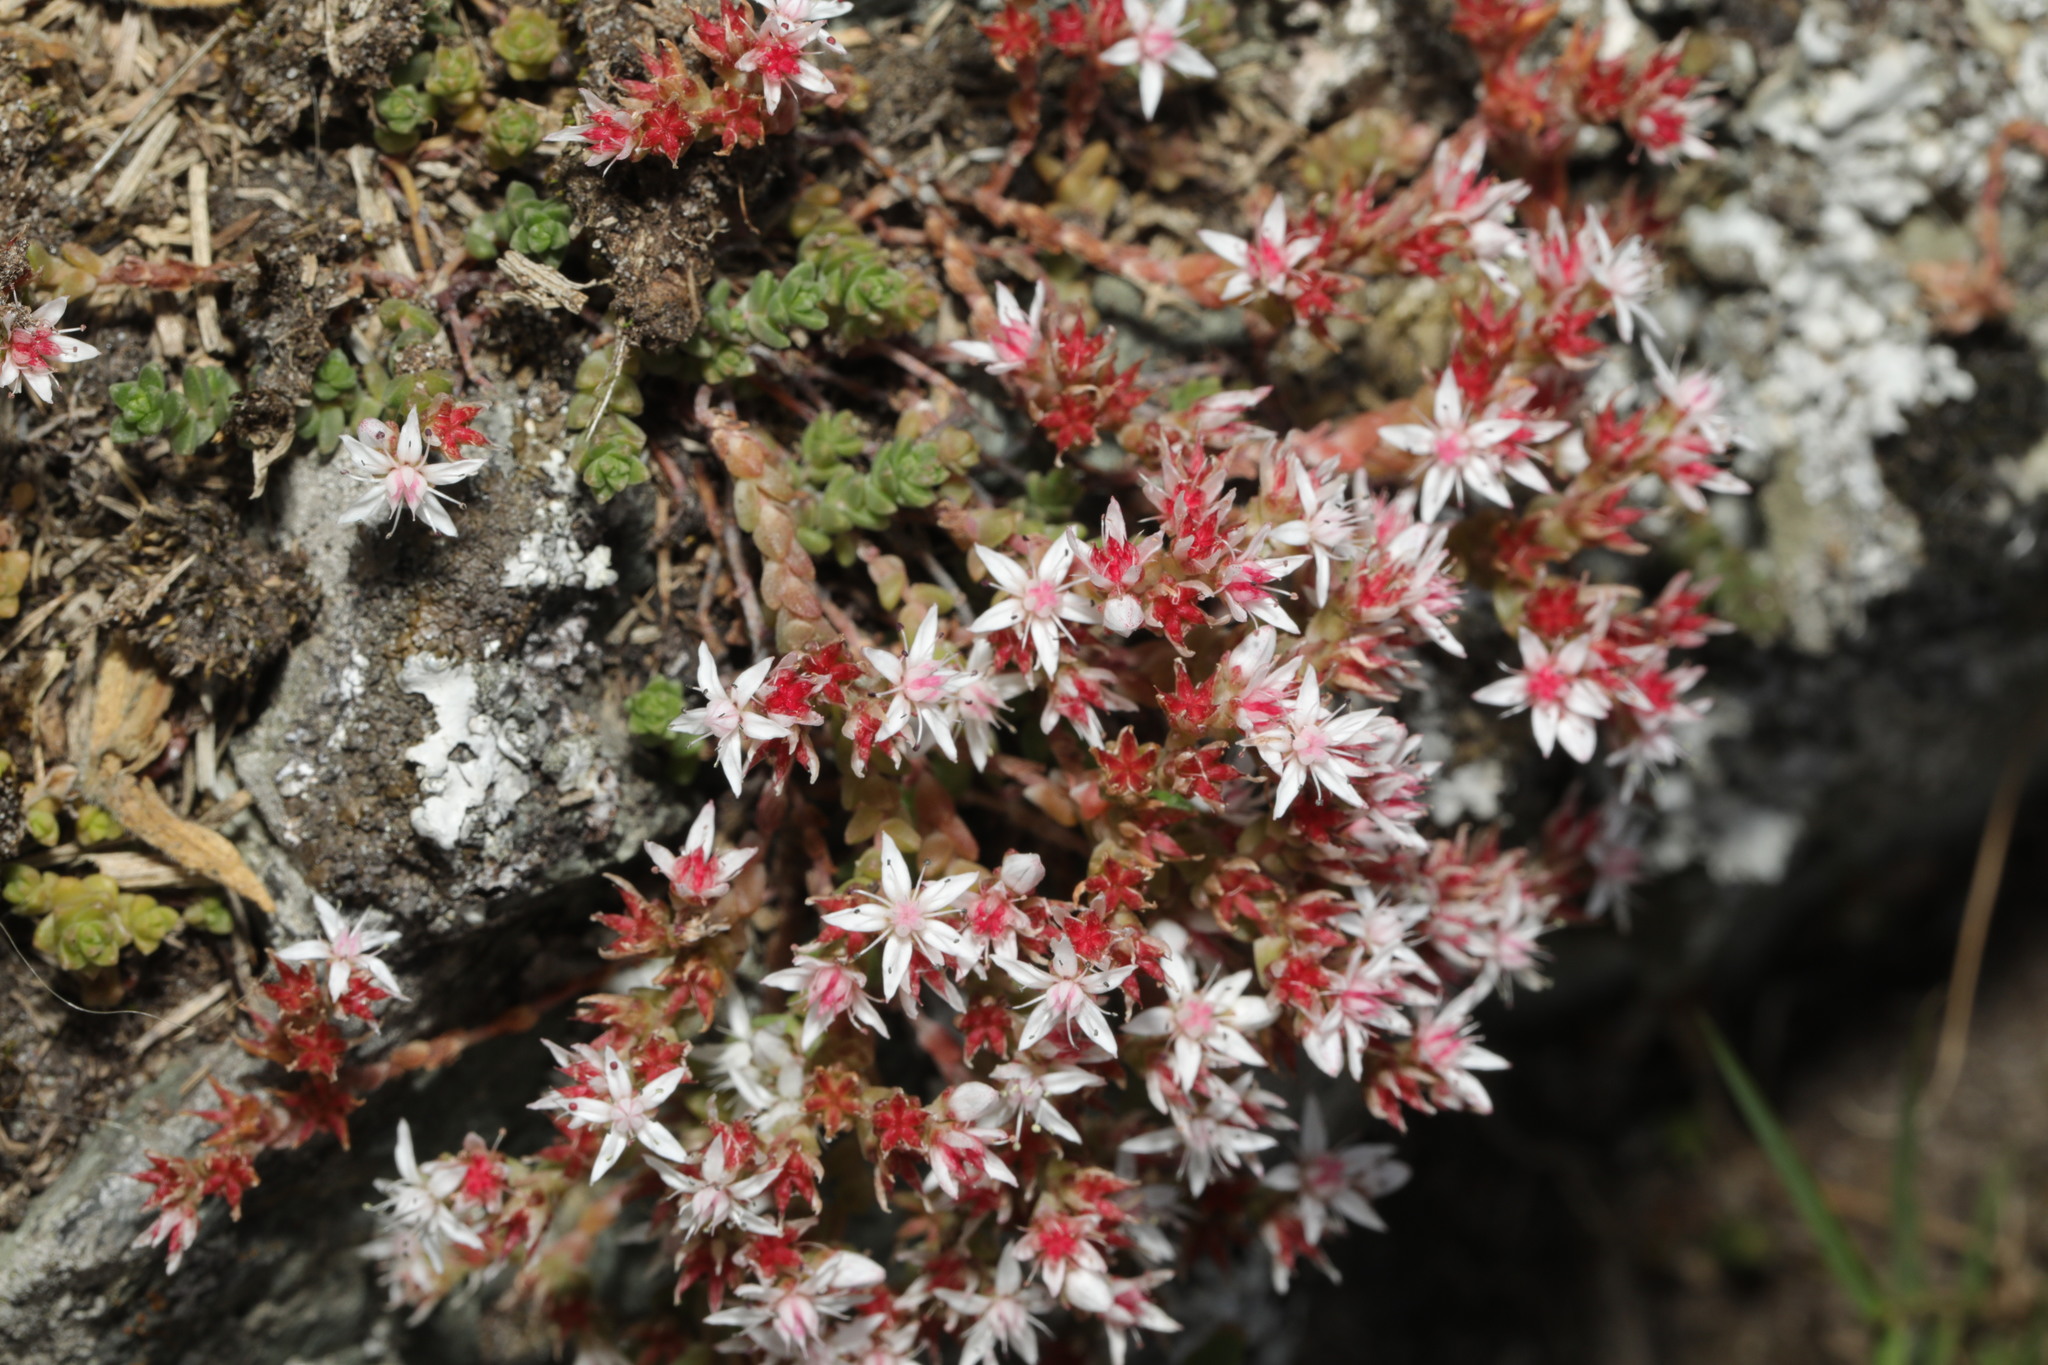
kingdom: Plantae
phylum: Tracheophyta
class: Magnoliopsida
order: Saxifragales
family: Crassulaceae
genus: Sedum
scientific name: Sedum anglicum
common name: English stonecrop
